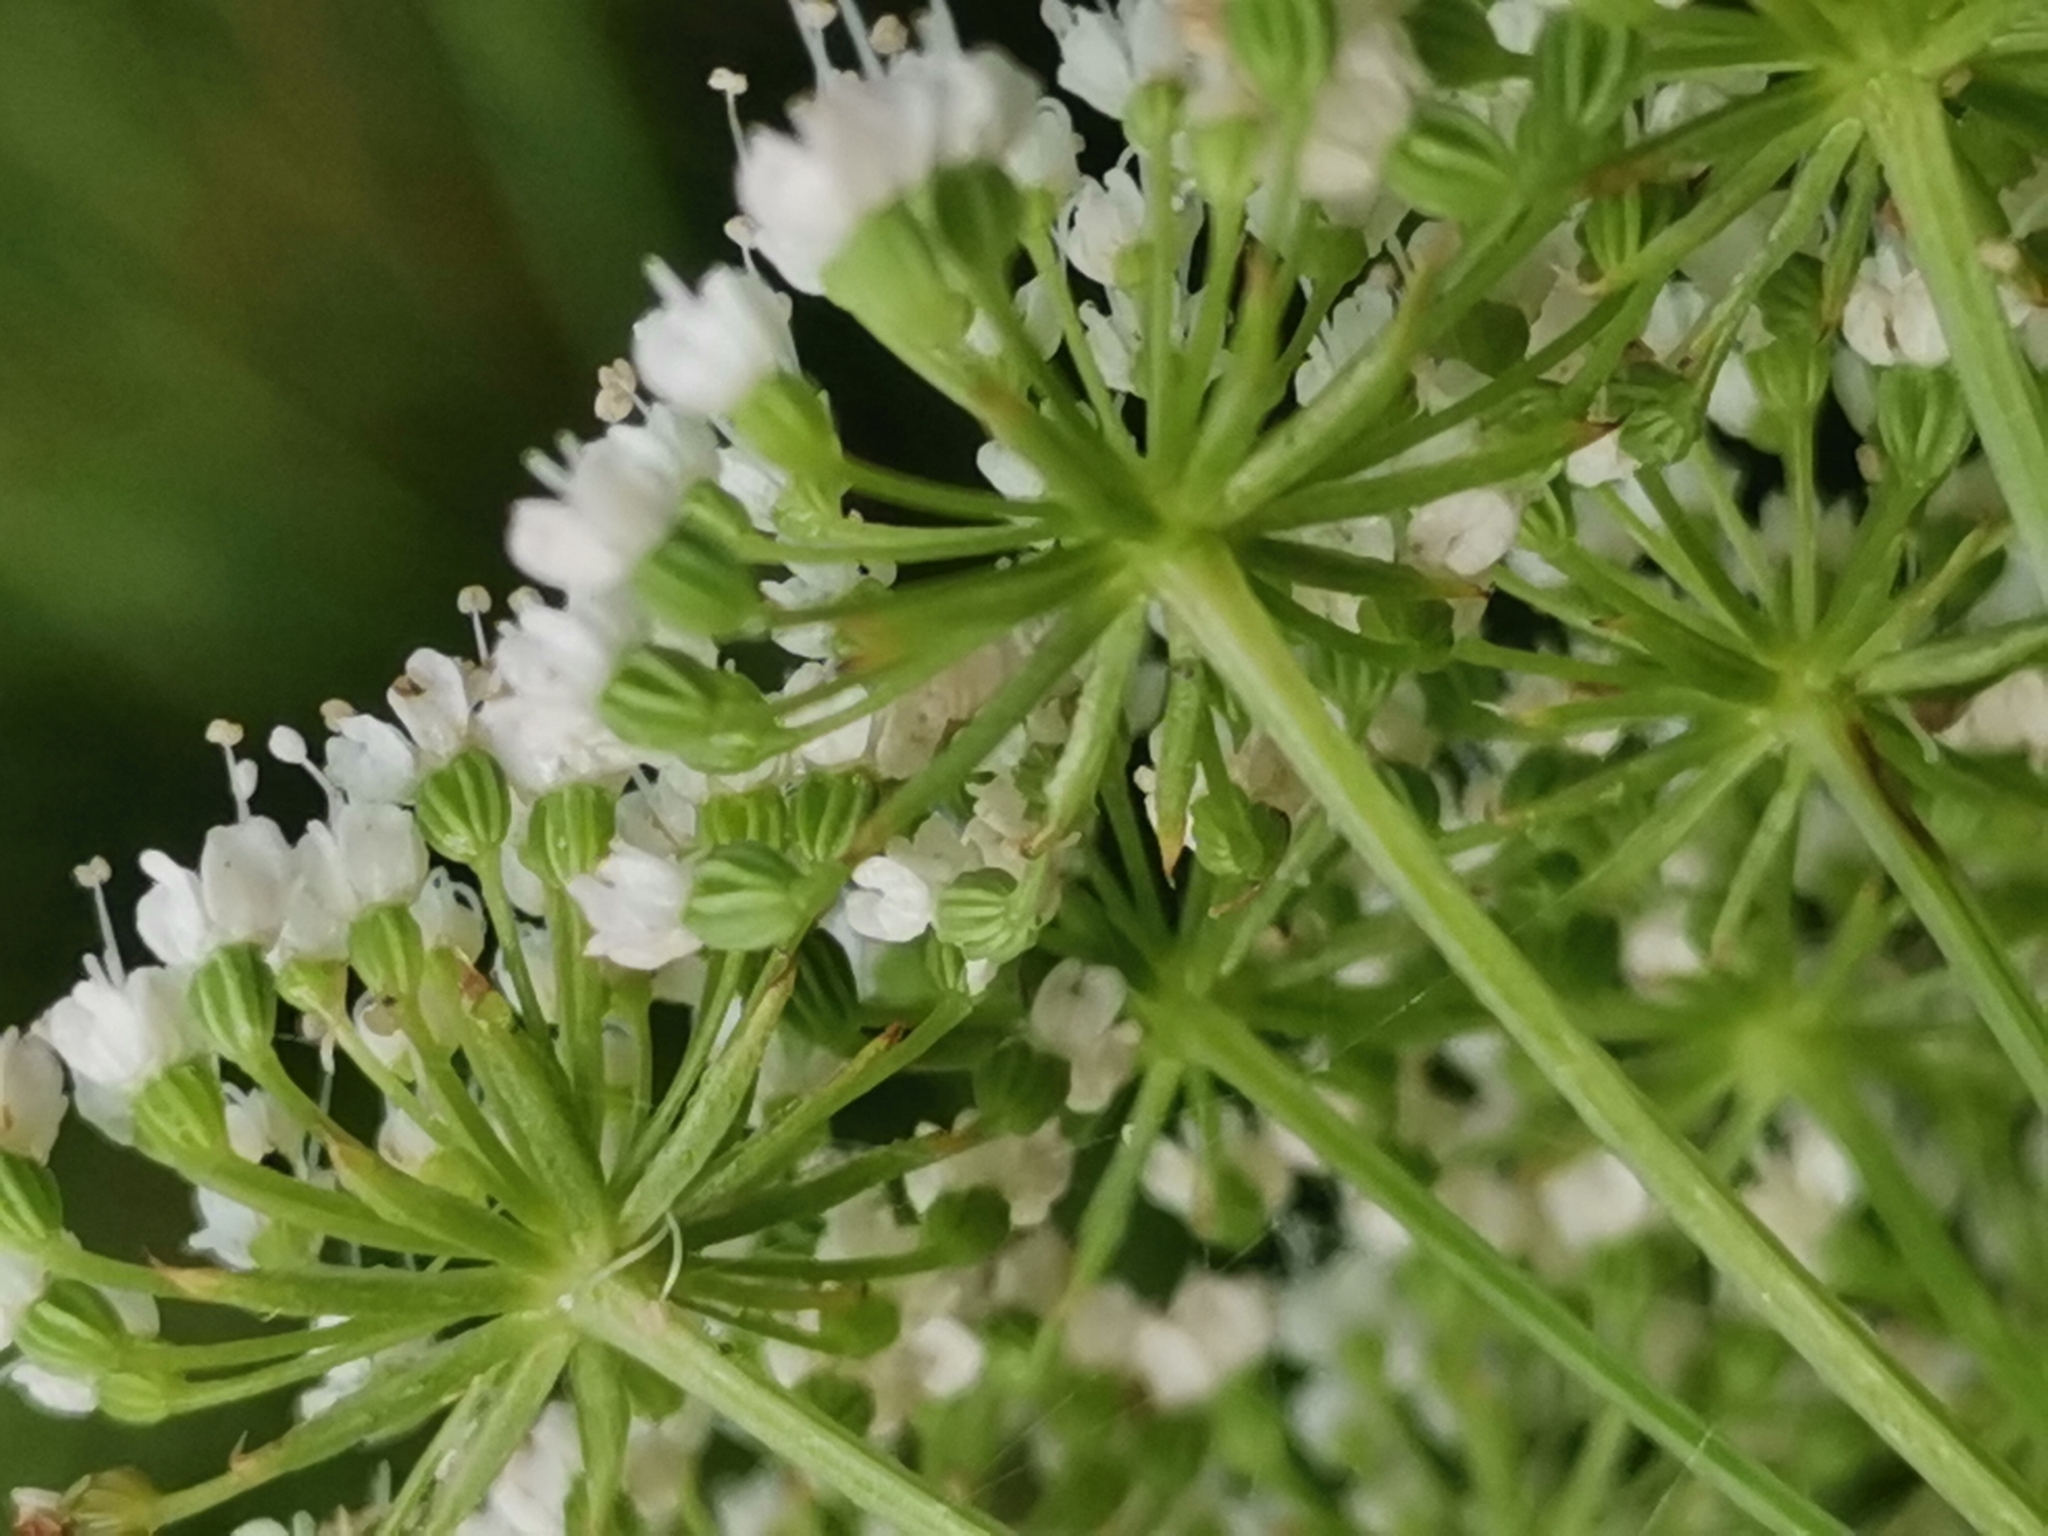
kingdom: Plantae
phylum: Tracheophyta
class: Magnoliopsida
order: Apiales
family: Apiaceae
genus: Selinum
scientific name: Selinum carvifolia
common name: Cambridge milk-parsley
